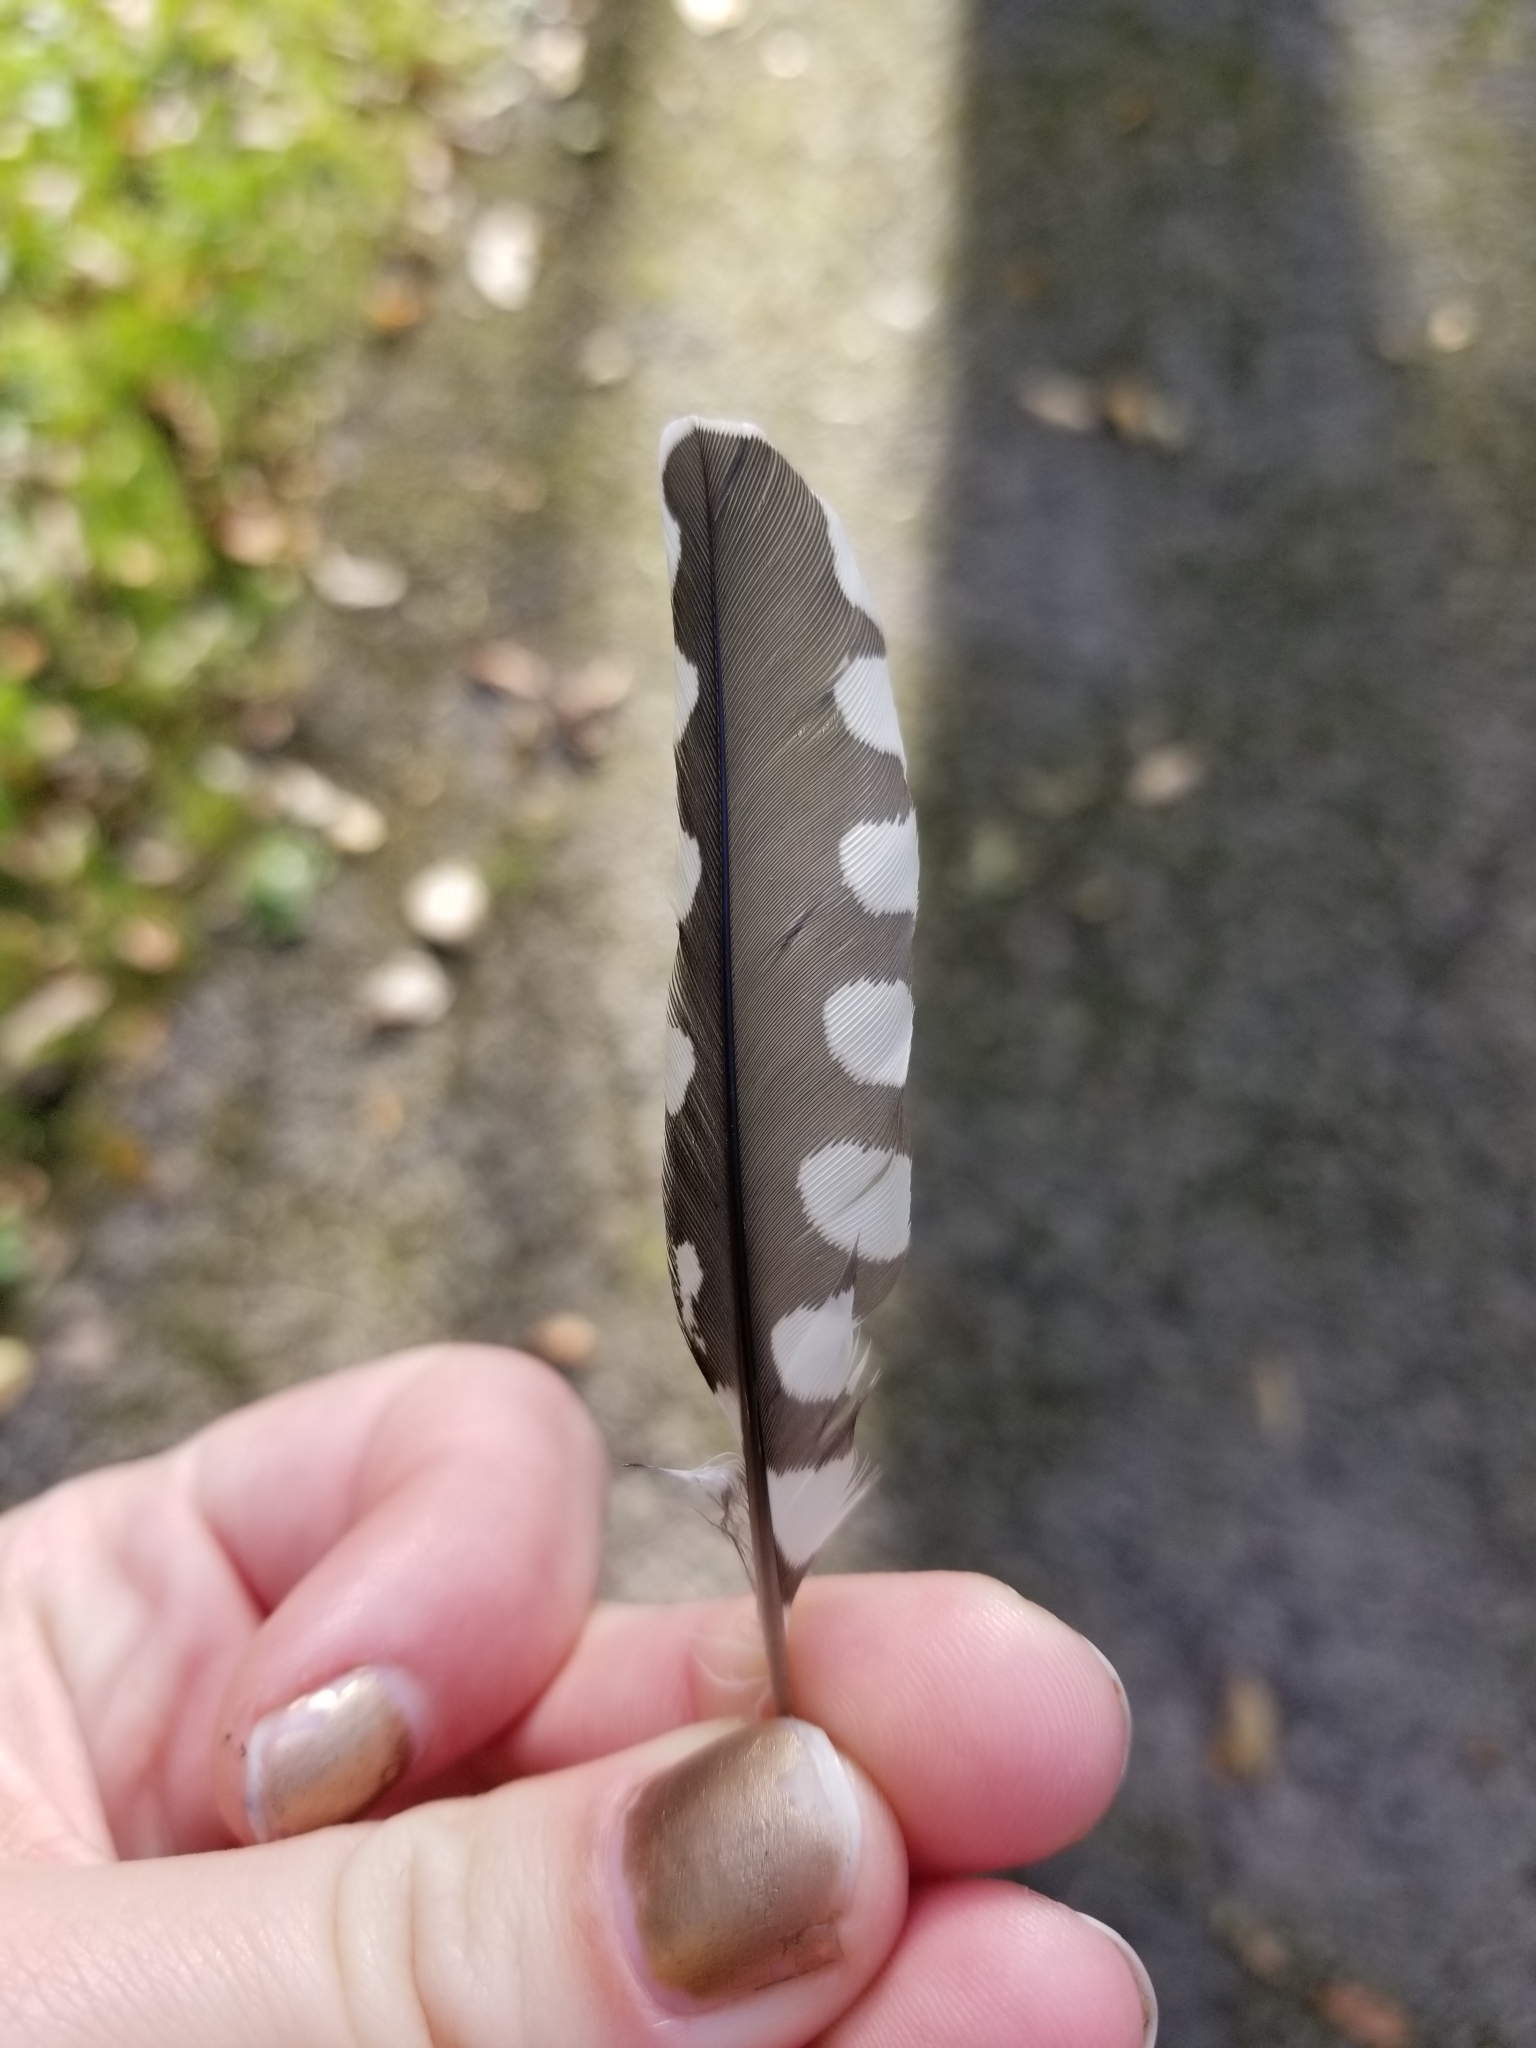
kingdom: Animalia
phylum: Chordata
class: Aves
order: Piciformes
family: Picidae
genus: Sphyrapicus
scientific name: Sphyrapicus varius
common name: Yellow-bellied sapsucker
